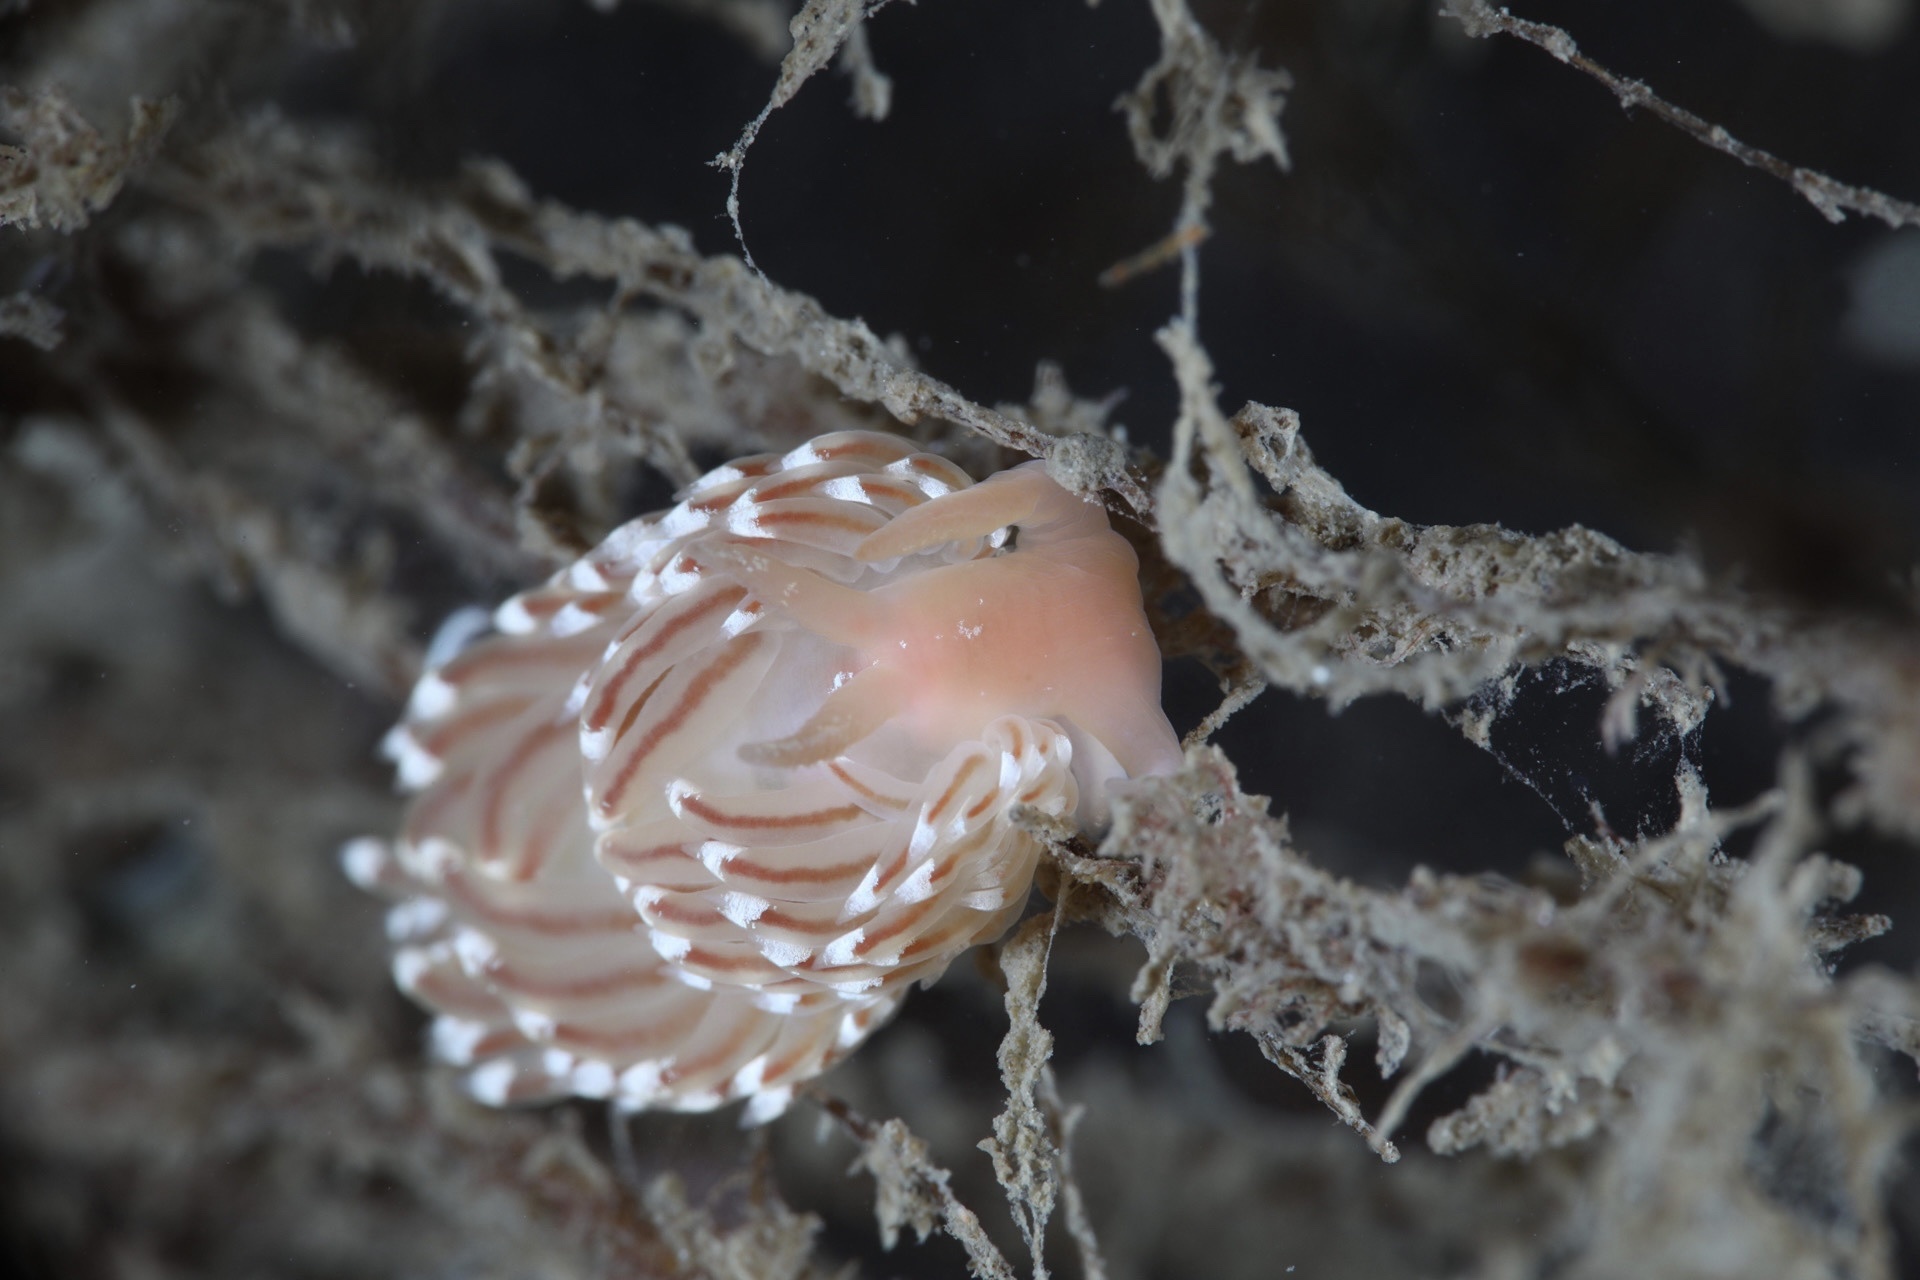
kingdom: Animalia
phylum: Mollusca
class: Gastropoda
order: Nudibranchia
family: Facelinidae
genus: Facelina
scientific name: Facelina bostoniensis
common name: Boston facelina
